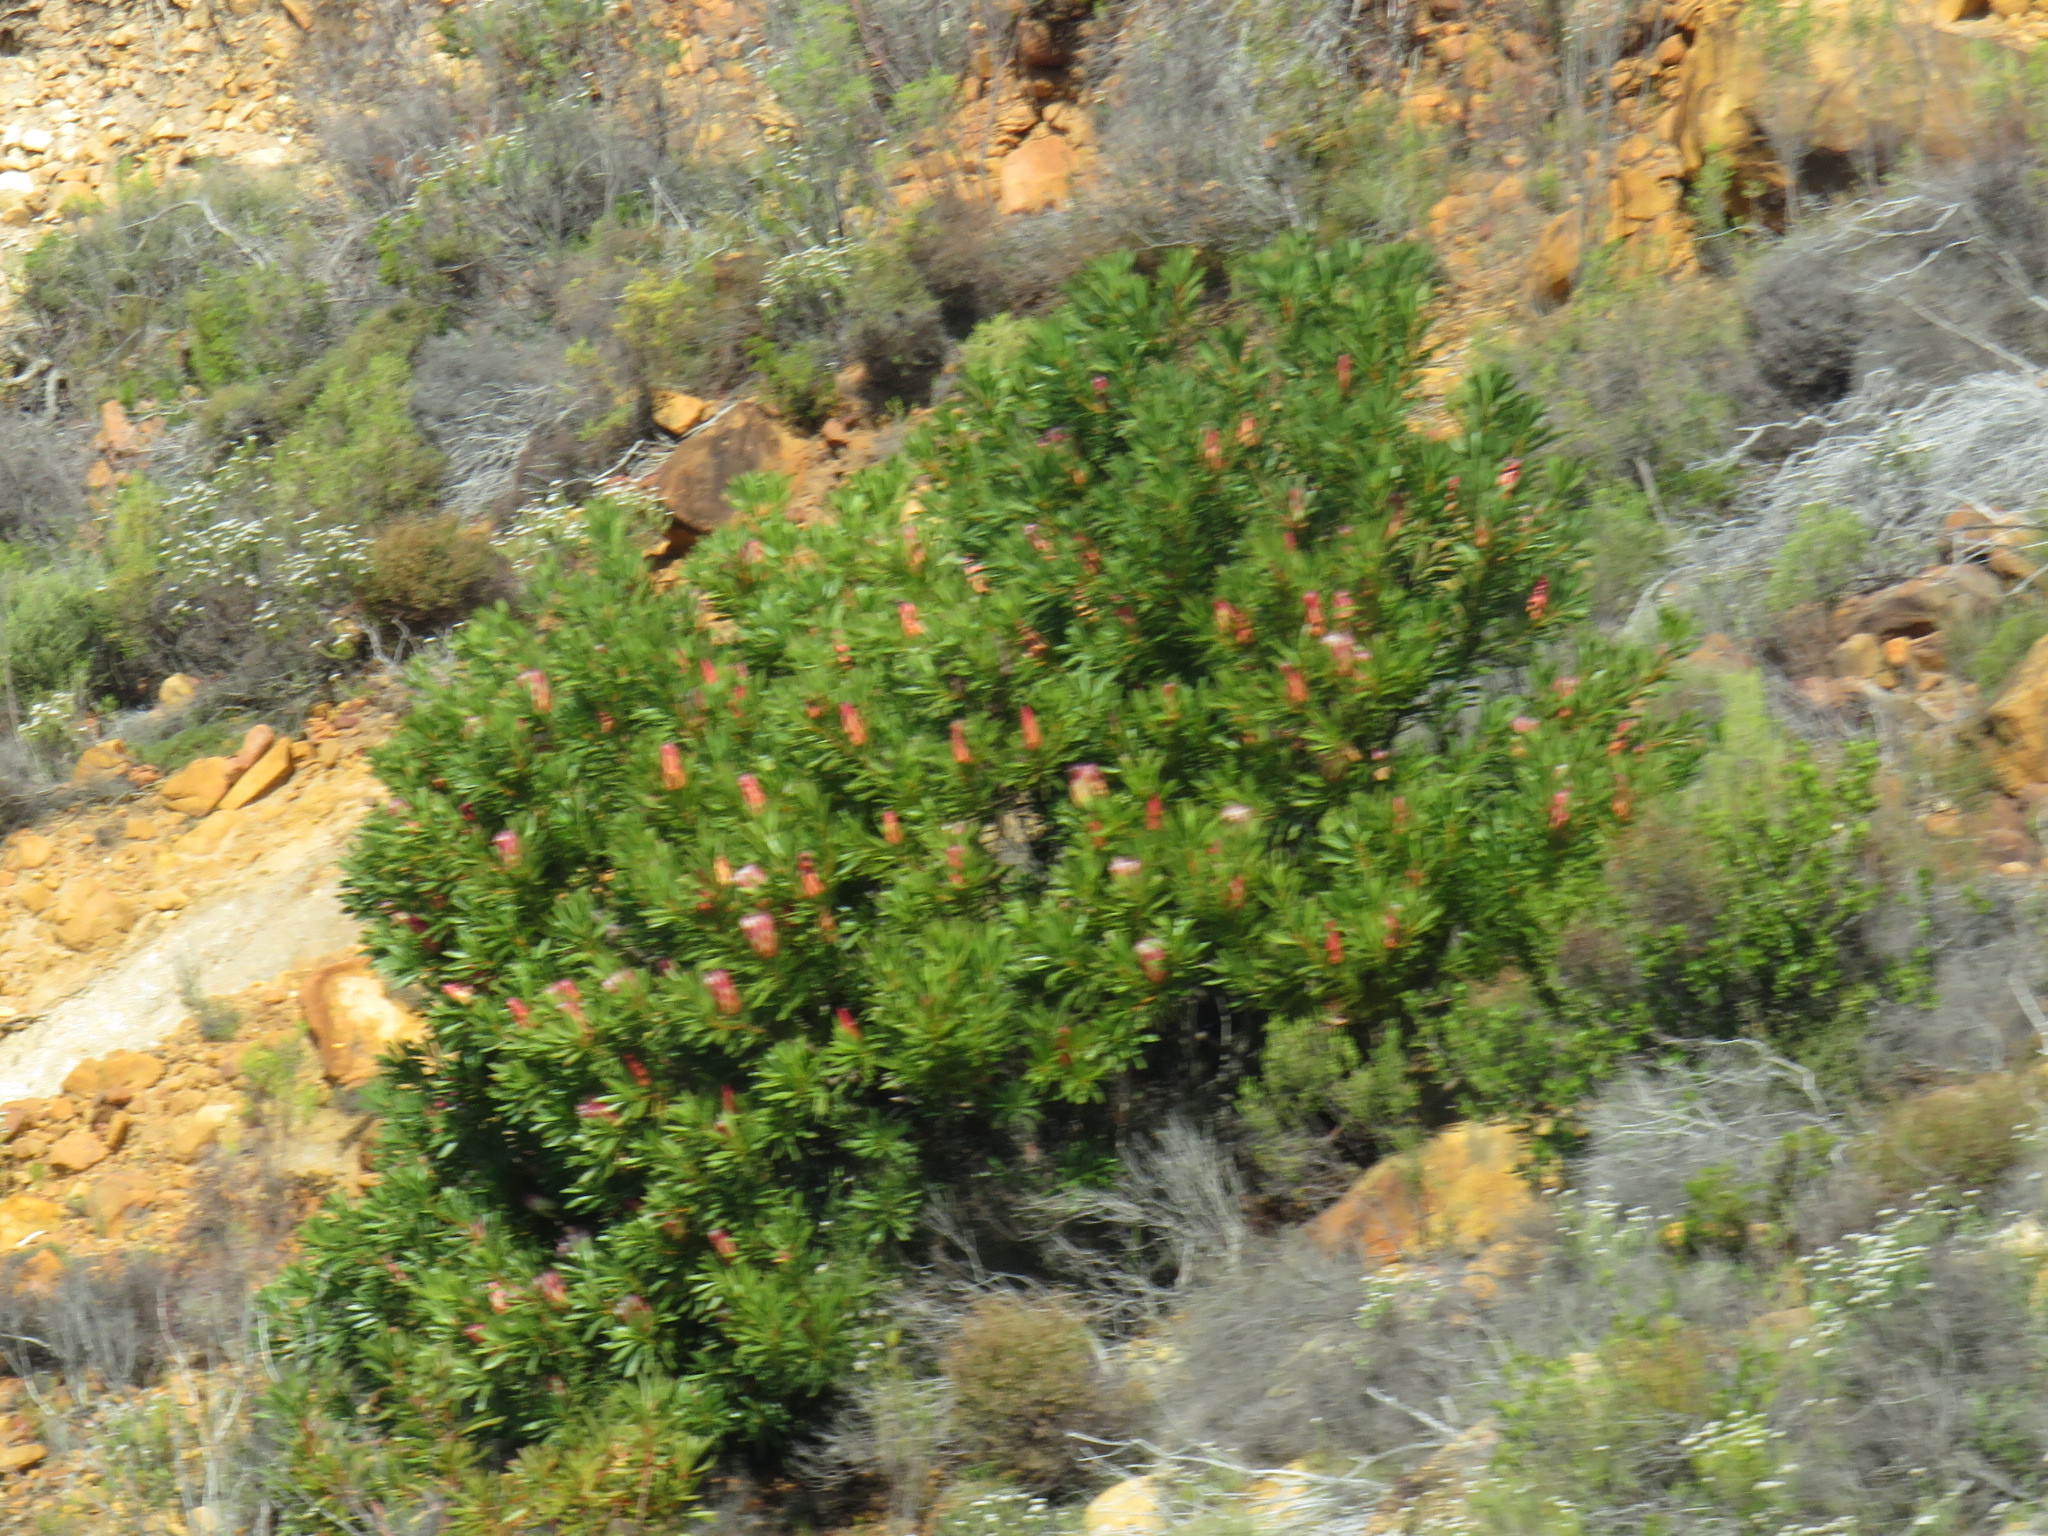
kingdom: Plantae
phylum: Tracheophyta
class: Magnoliopsida
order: Proteales
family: Proteaceae
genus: Protea
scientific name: Protea repens
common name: Sugarbush
